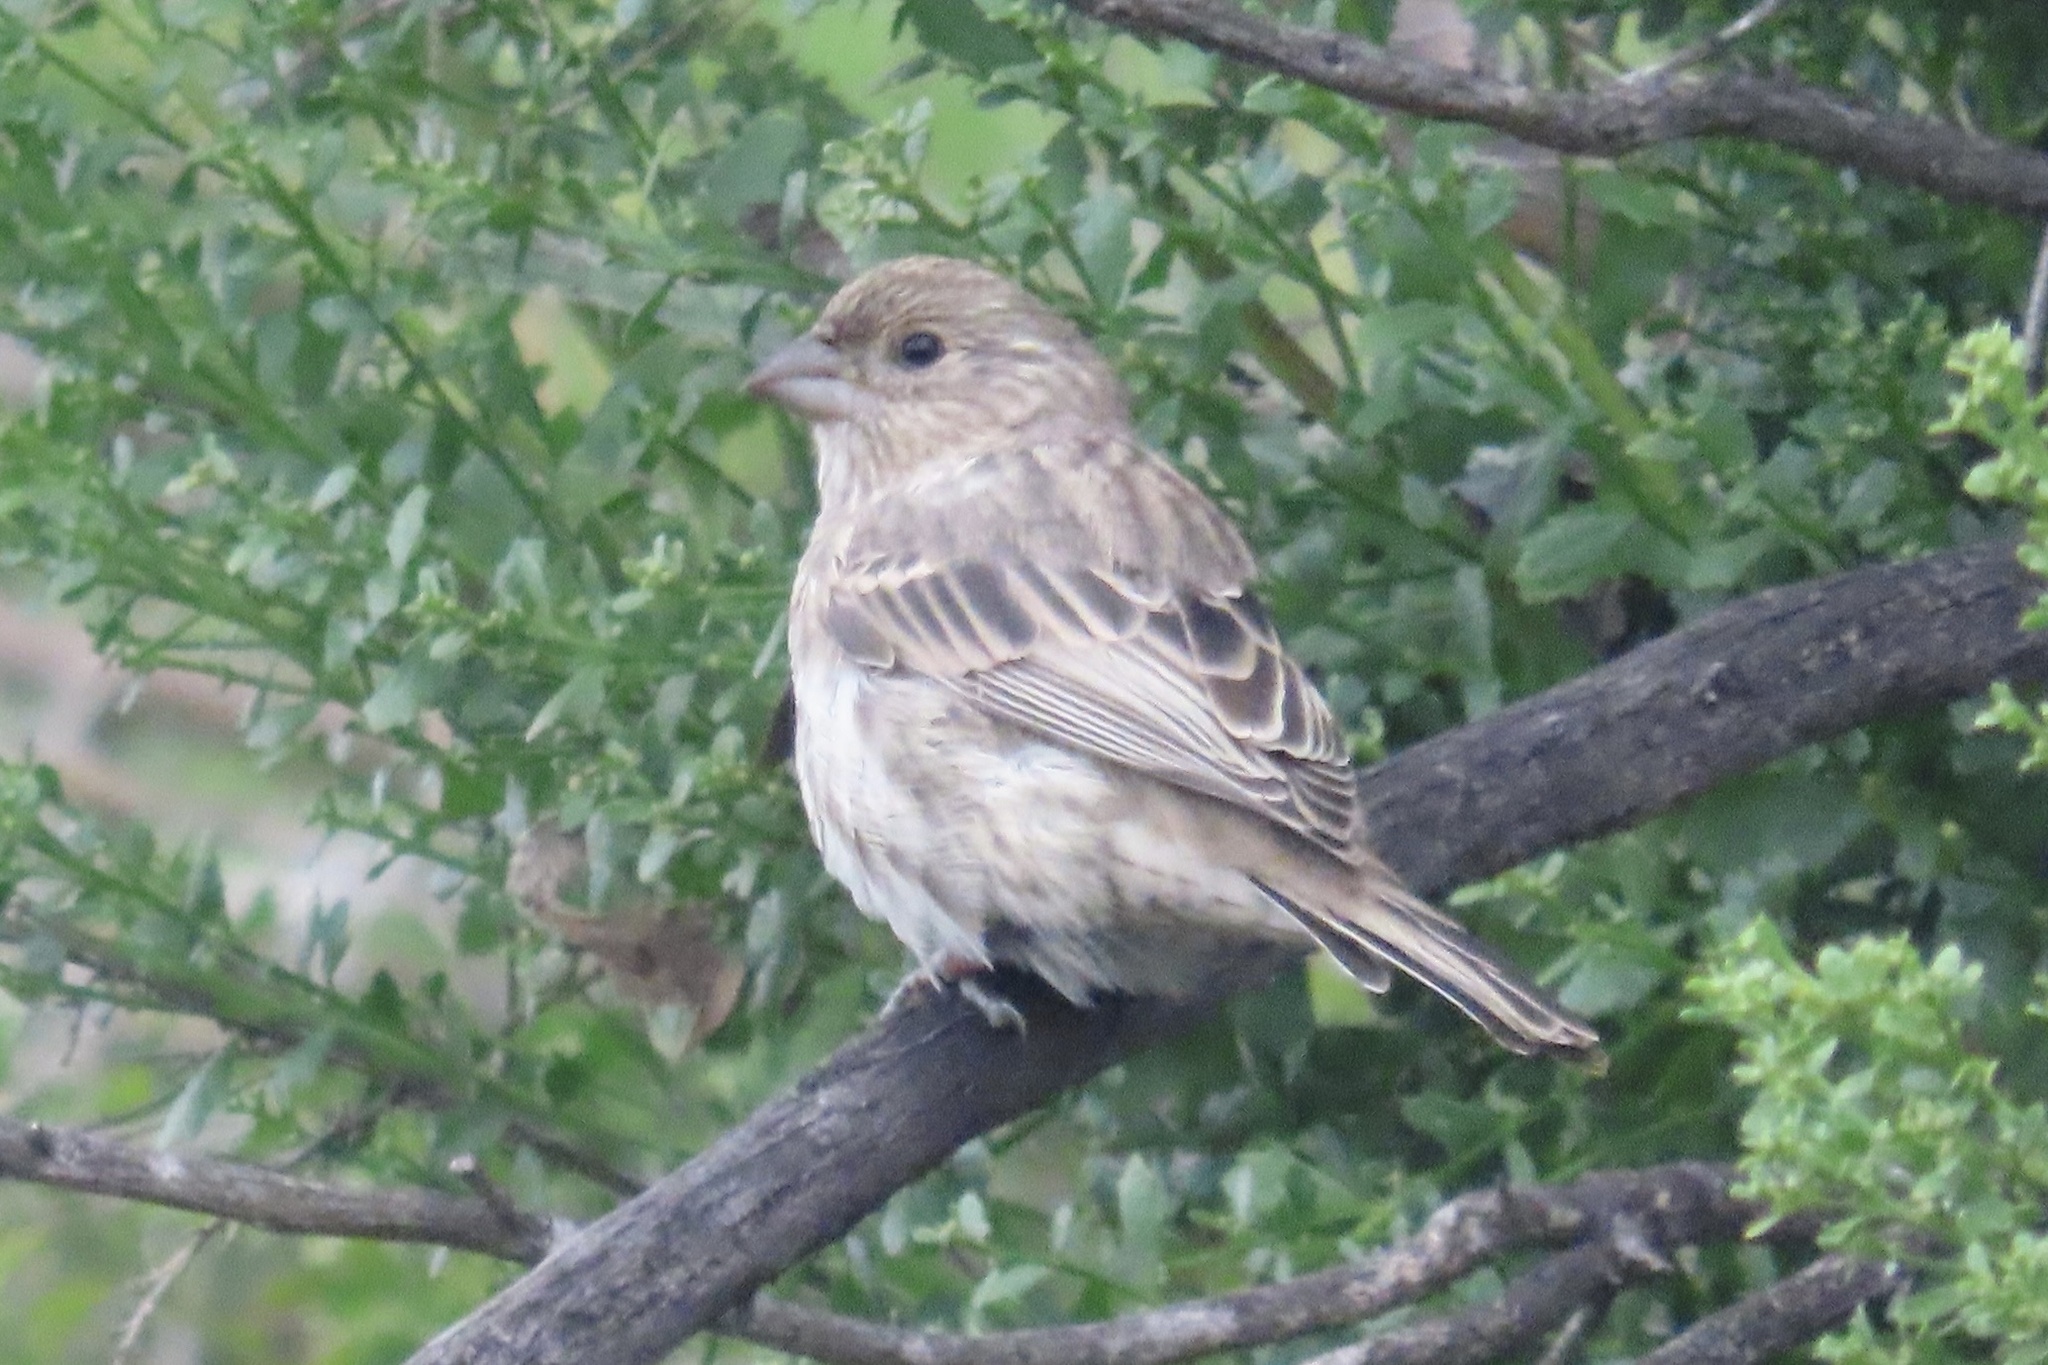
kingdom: Animalia
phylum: Chordata
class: Aves
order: Passeriformes
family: Fringillidae
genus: Haemorhous
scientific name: Haemorhous mexicanus
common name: House finch
